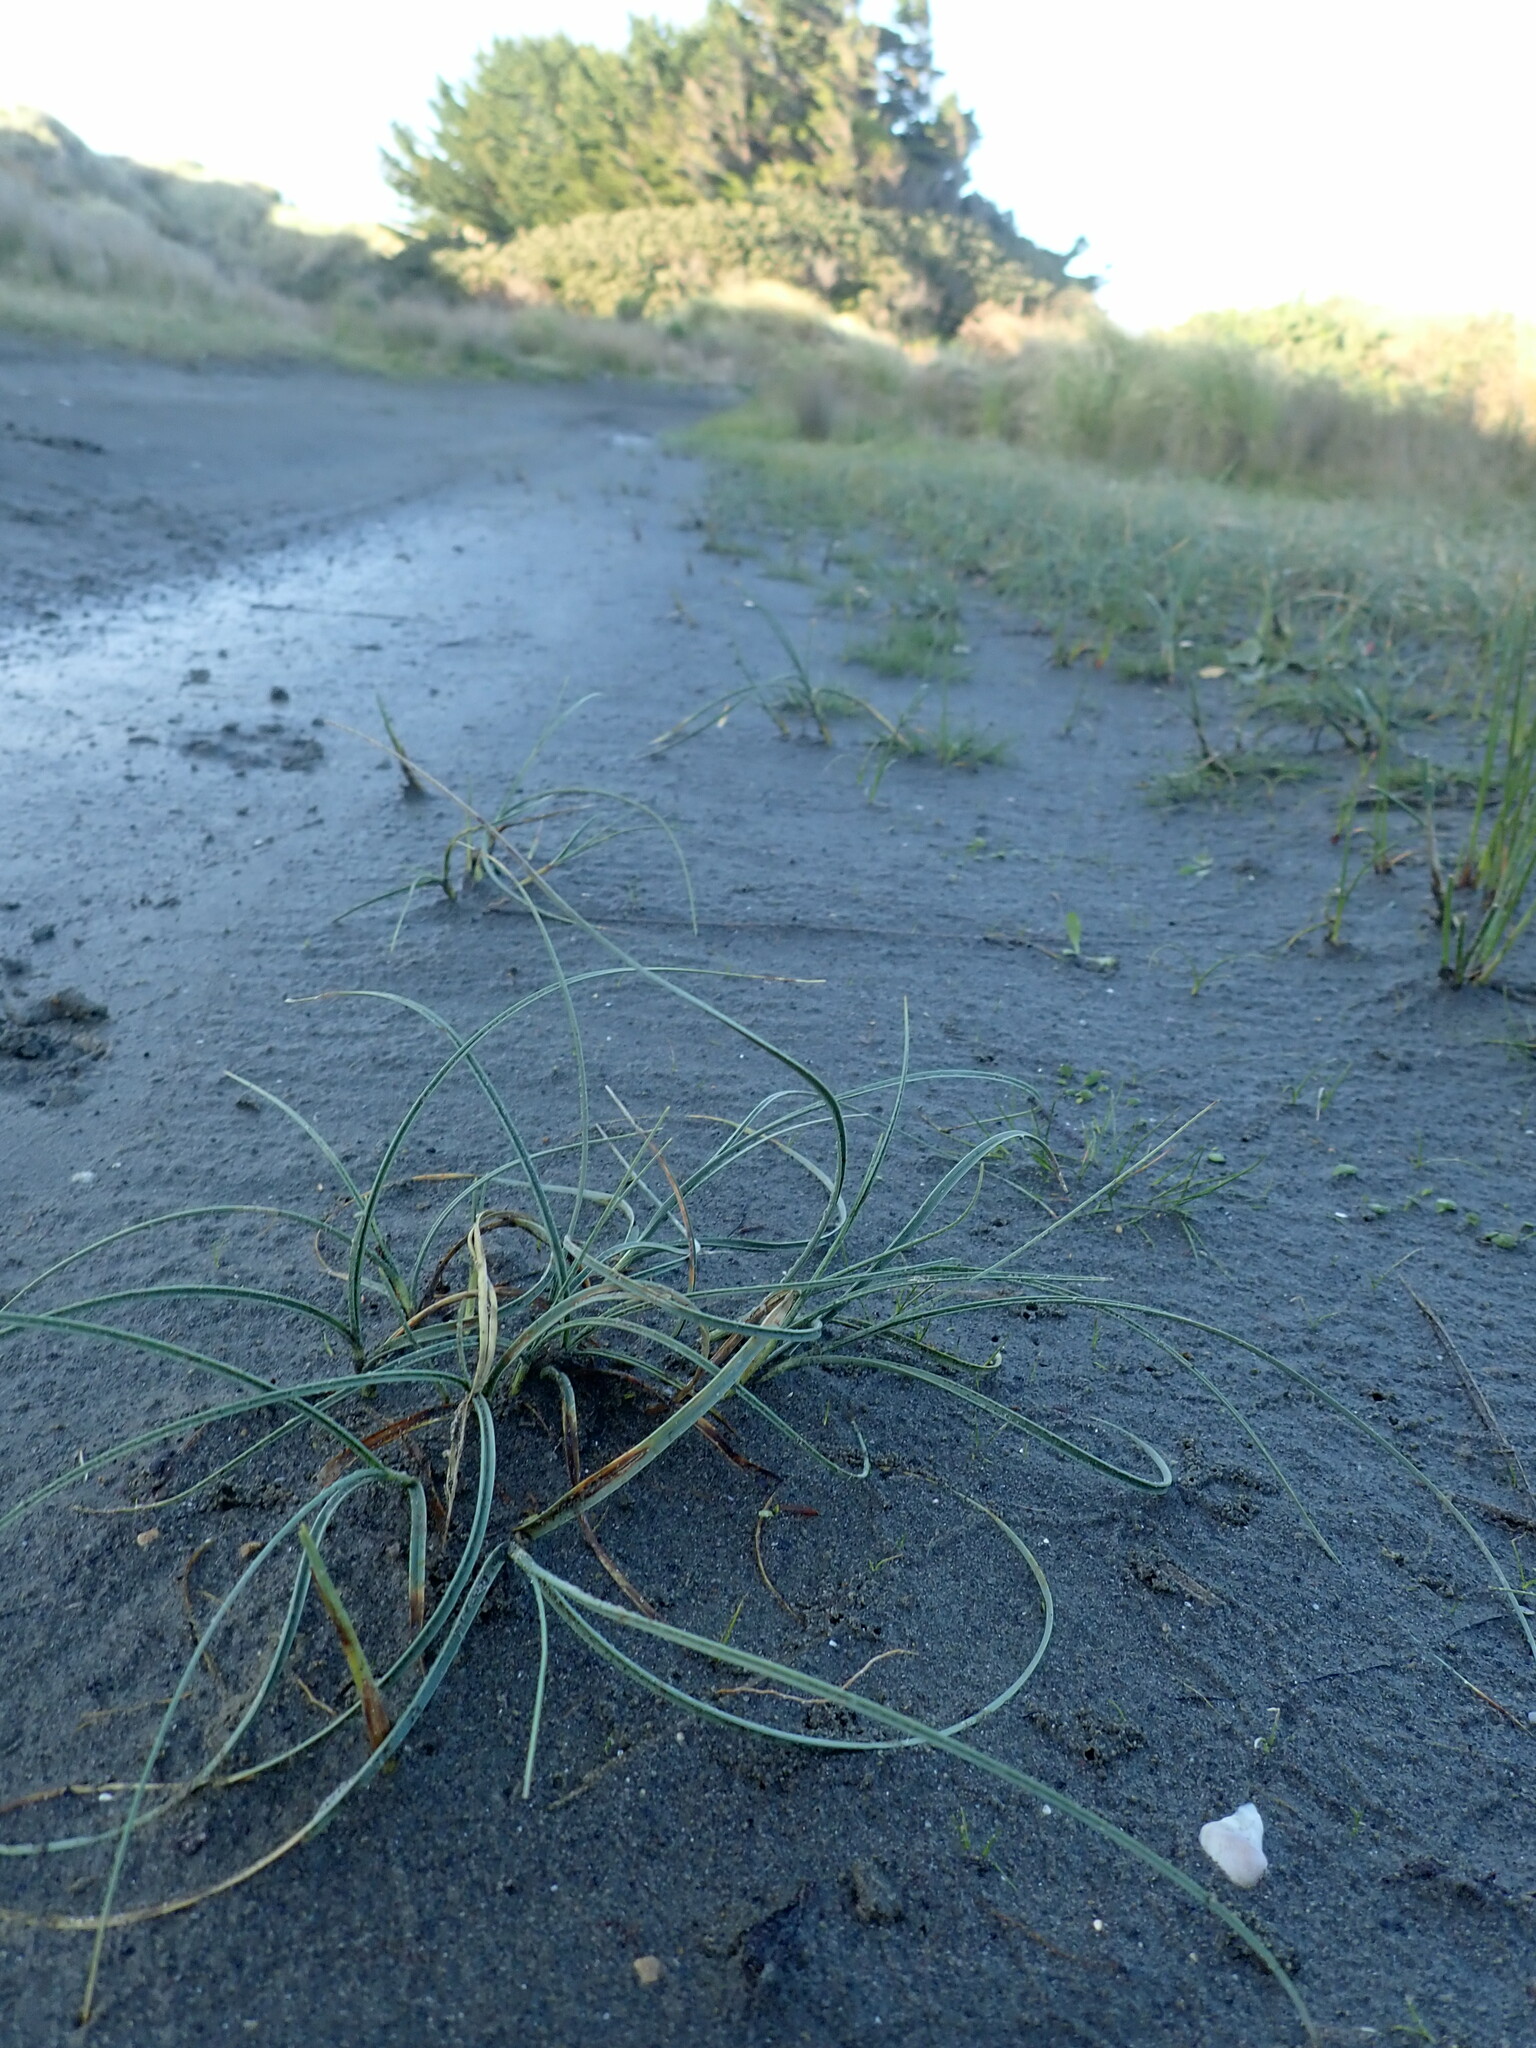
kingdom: Plantae
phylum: Tracheophyta
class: Liliopsida
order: Poales
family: Cyperaceae
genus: Carex
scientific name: Carex pumila
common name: Dwarf sedge
